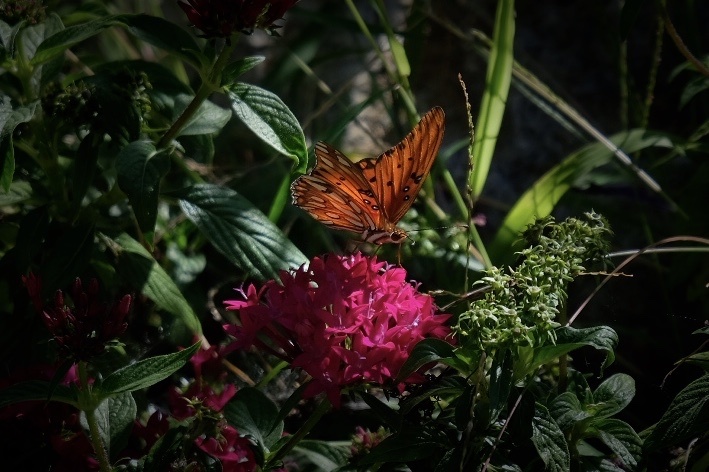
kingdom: Animalia
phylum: Arthropoda
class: Insecta
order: Lepidoptera
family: Nymphalidae
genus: Dione
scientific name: Dione vanillae
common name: Gulf fritillary
